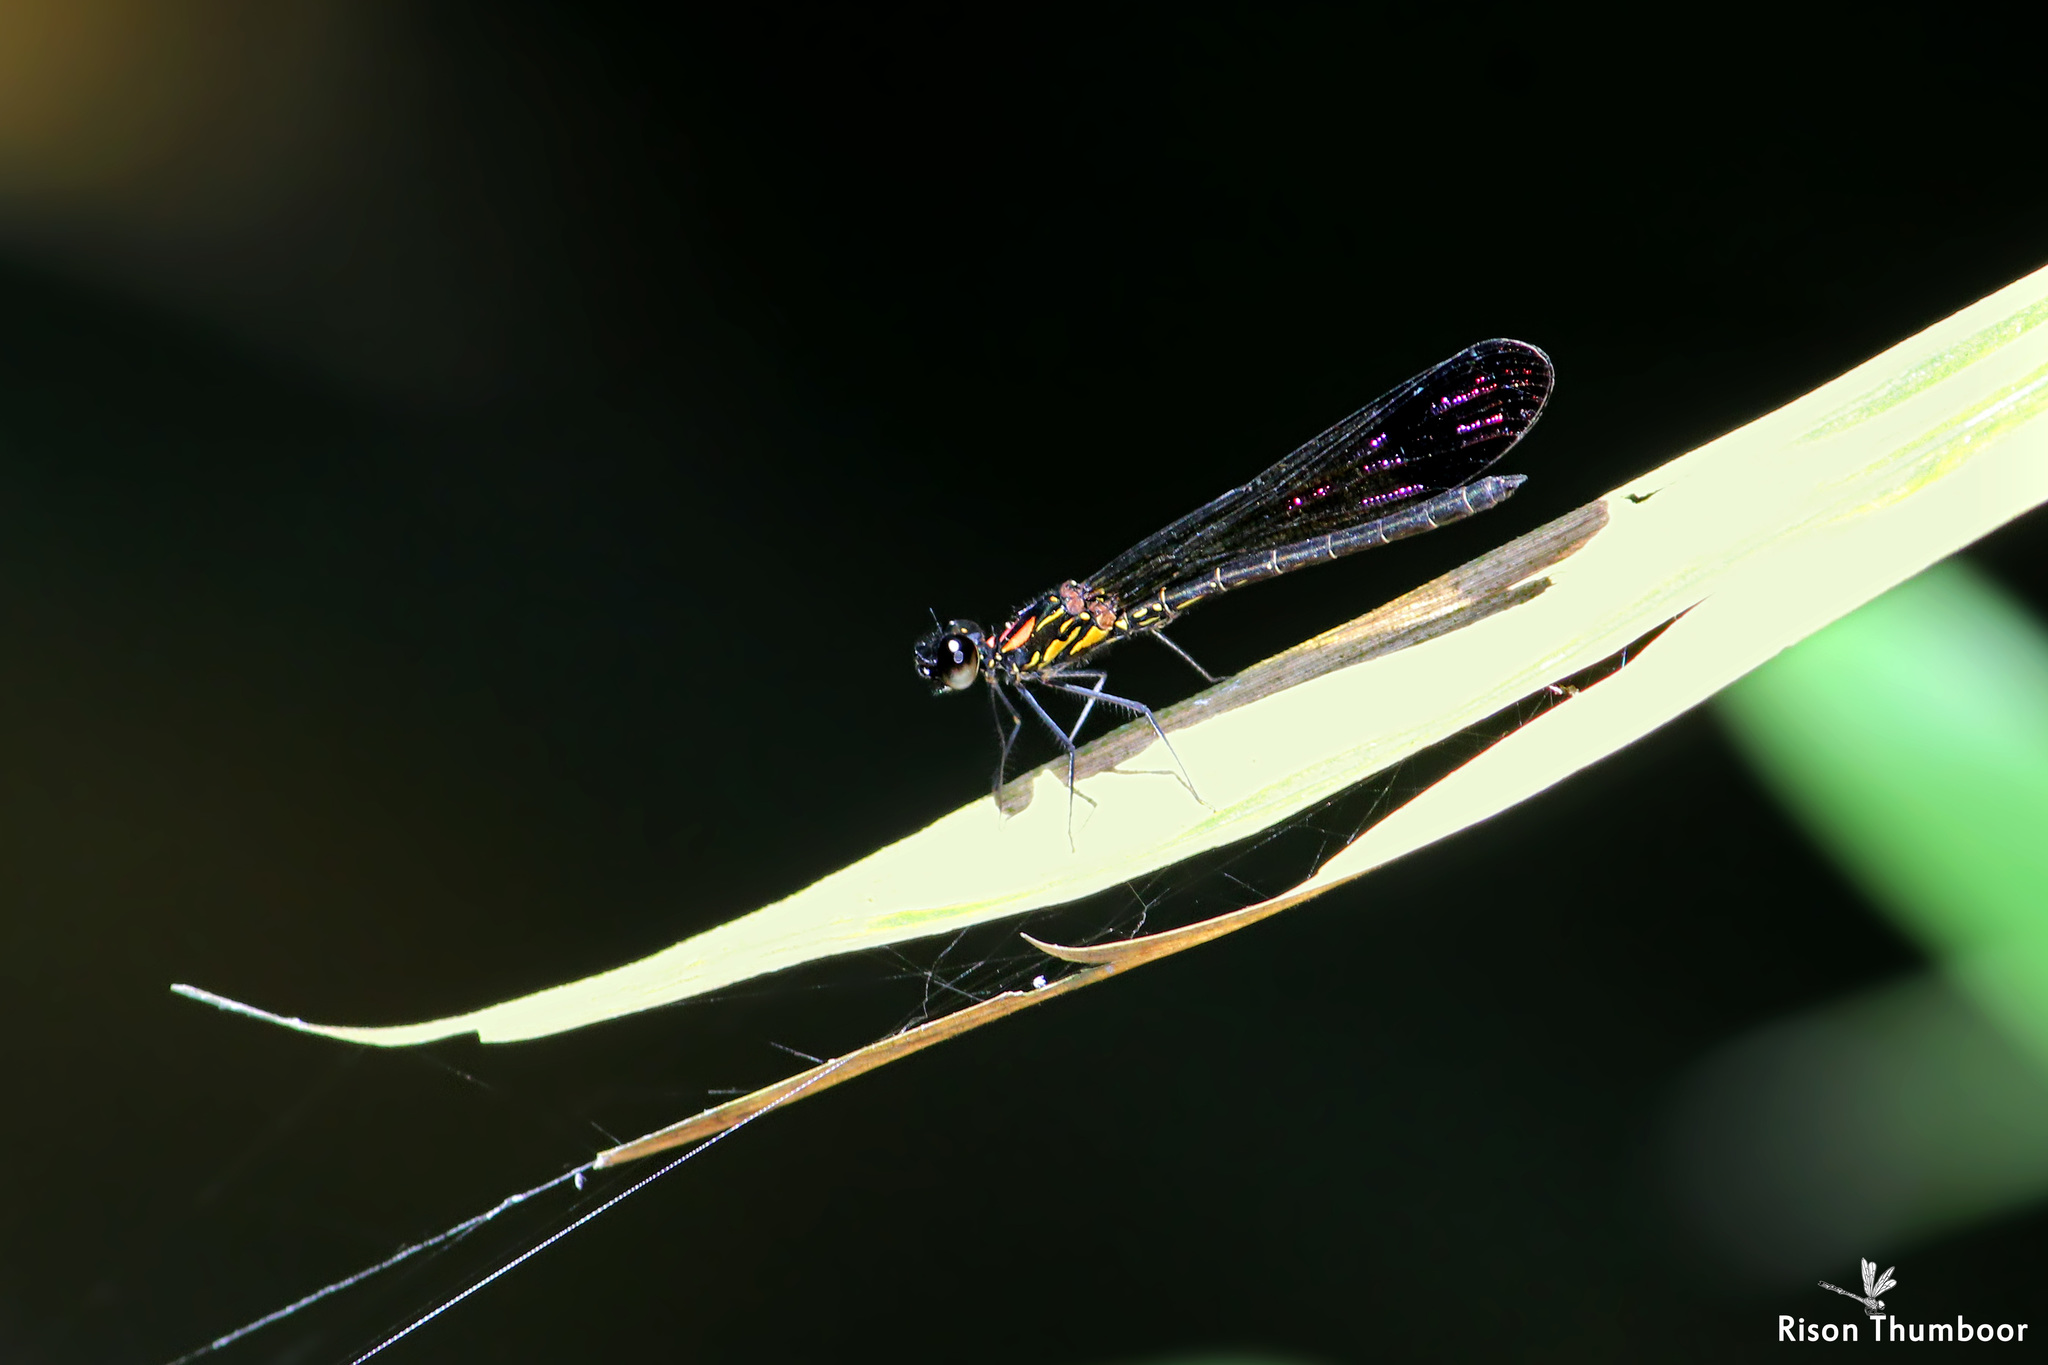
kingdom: Animalia
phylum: Arthropoda
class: Insecta
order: Odonata
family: Chlorocyphidae
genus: Heliocypha
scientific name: Heliocypha bisignata
